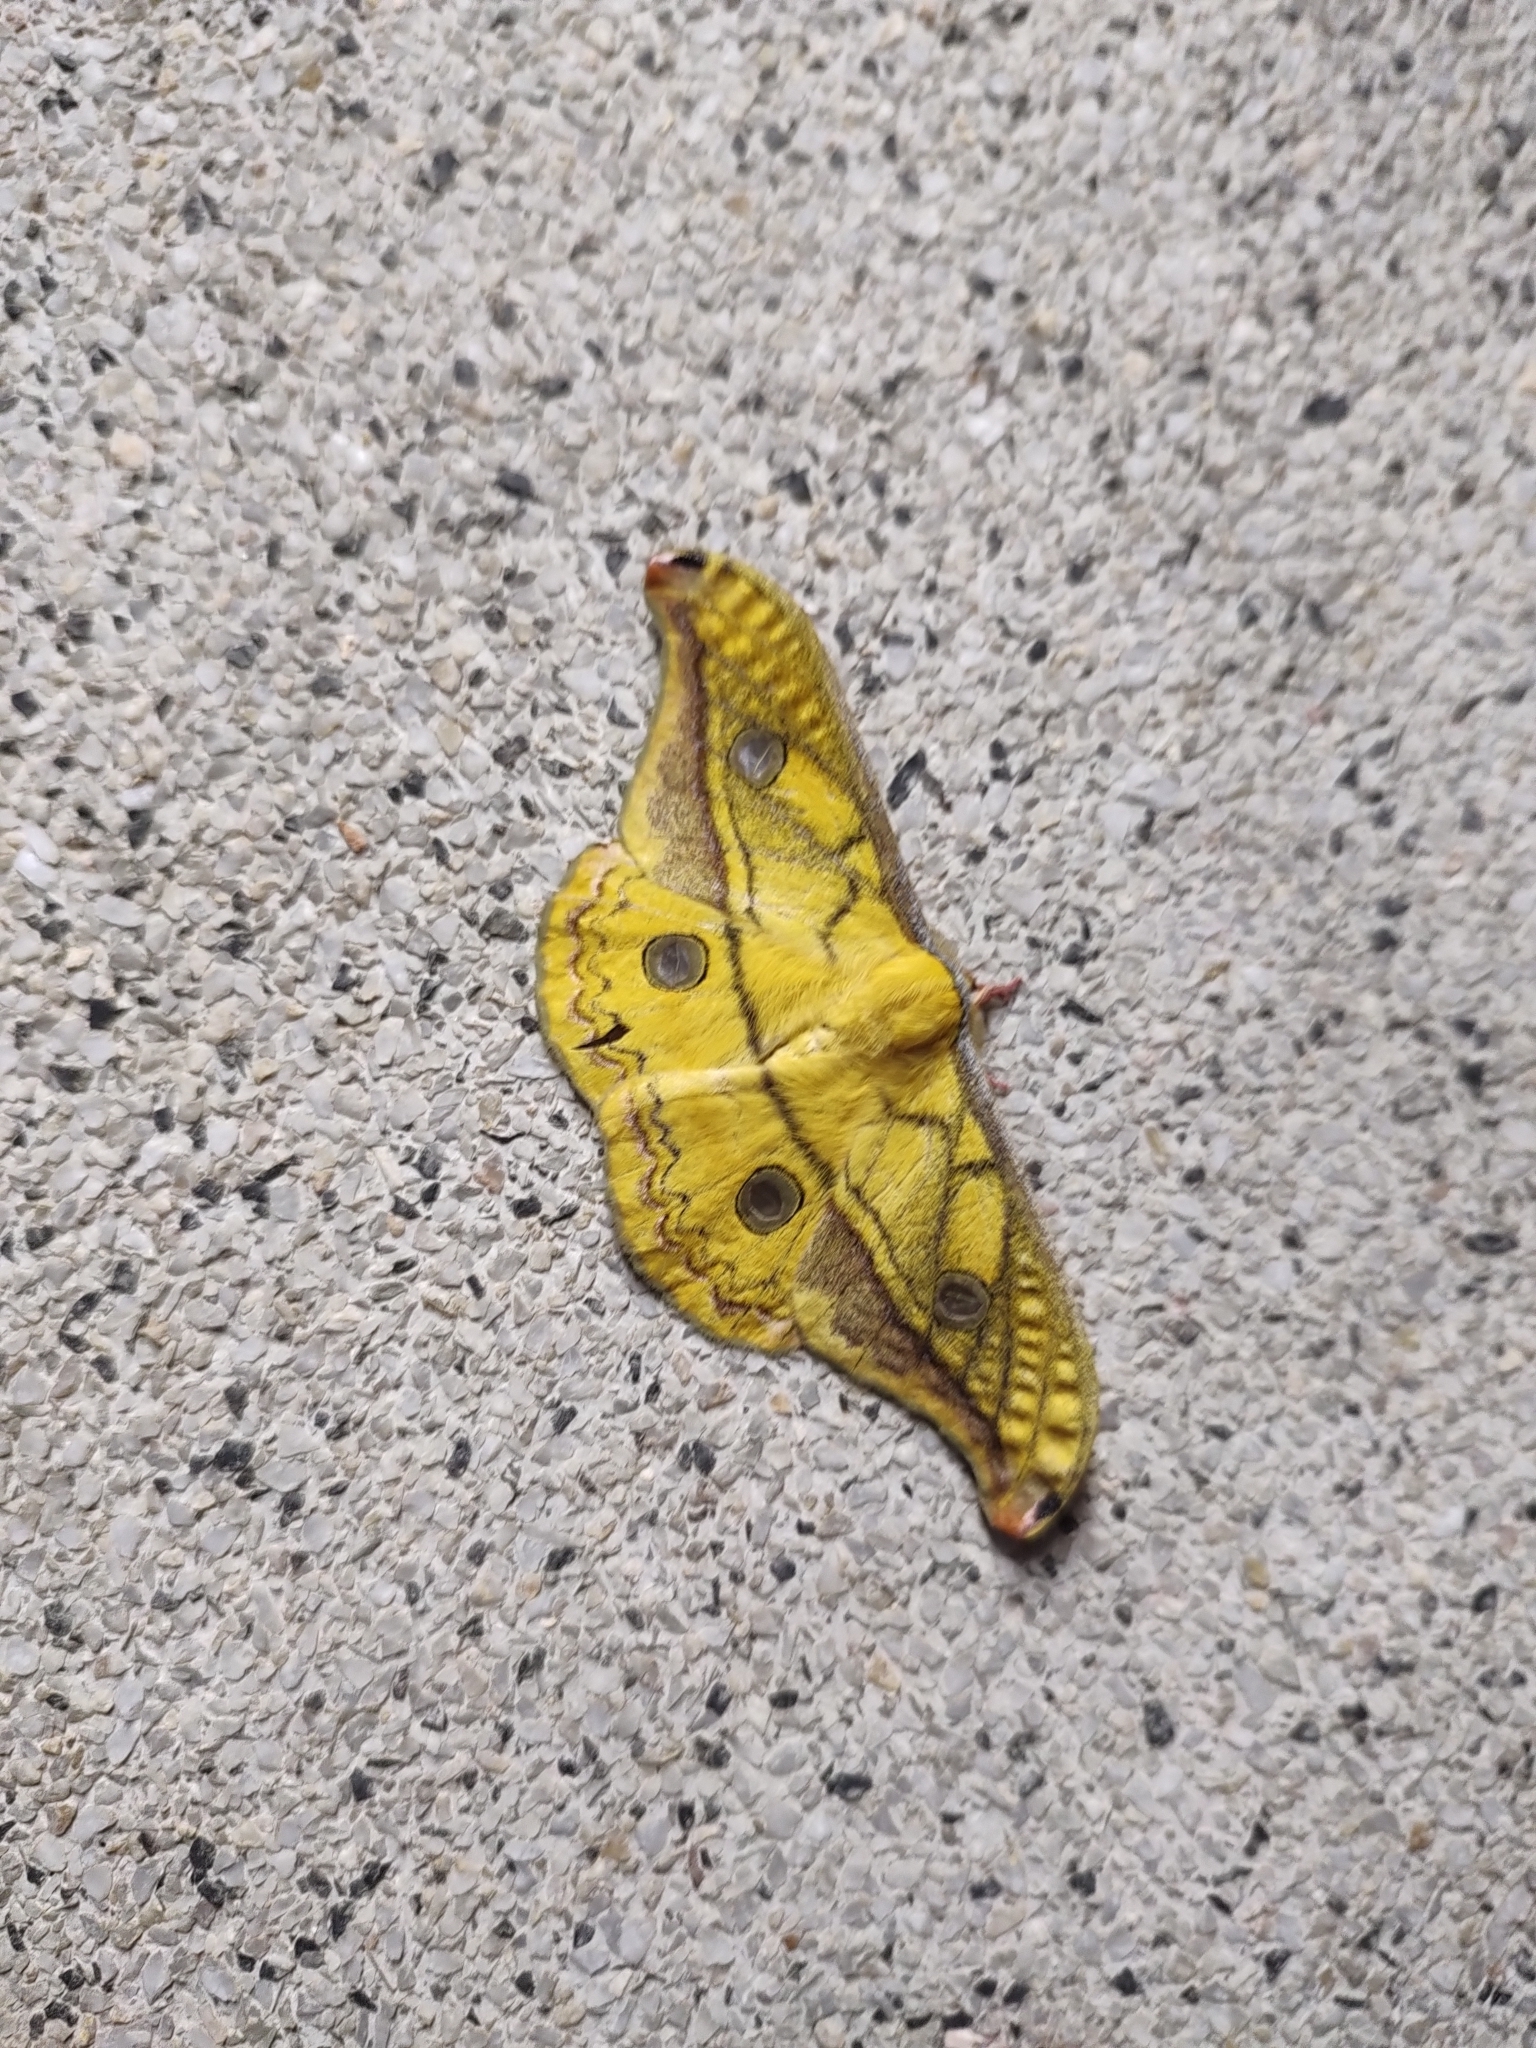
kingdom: Animalia
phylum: Arthropoda
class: Insecta
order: Lepidoptera
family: Saturniidae
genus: Copaxa
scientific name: Copaxa flavina
